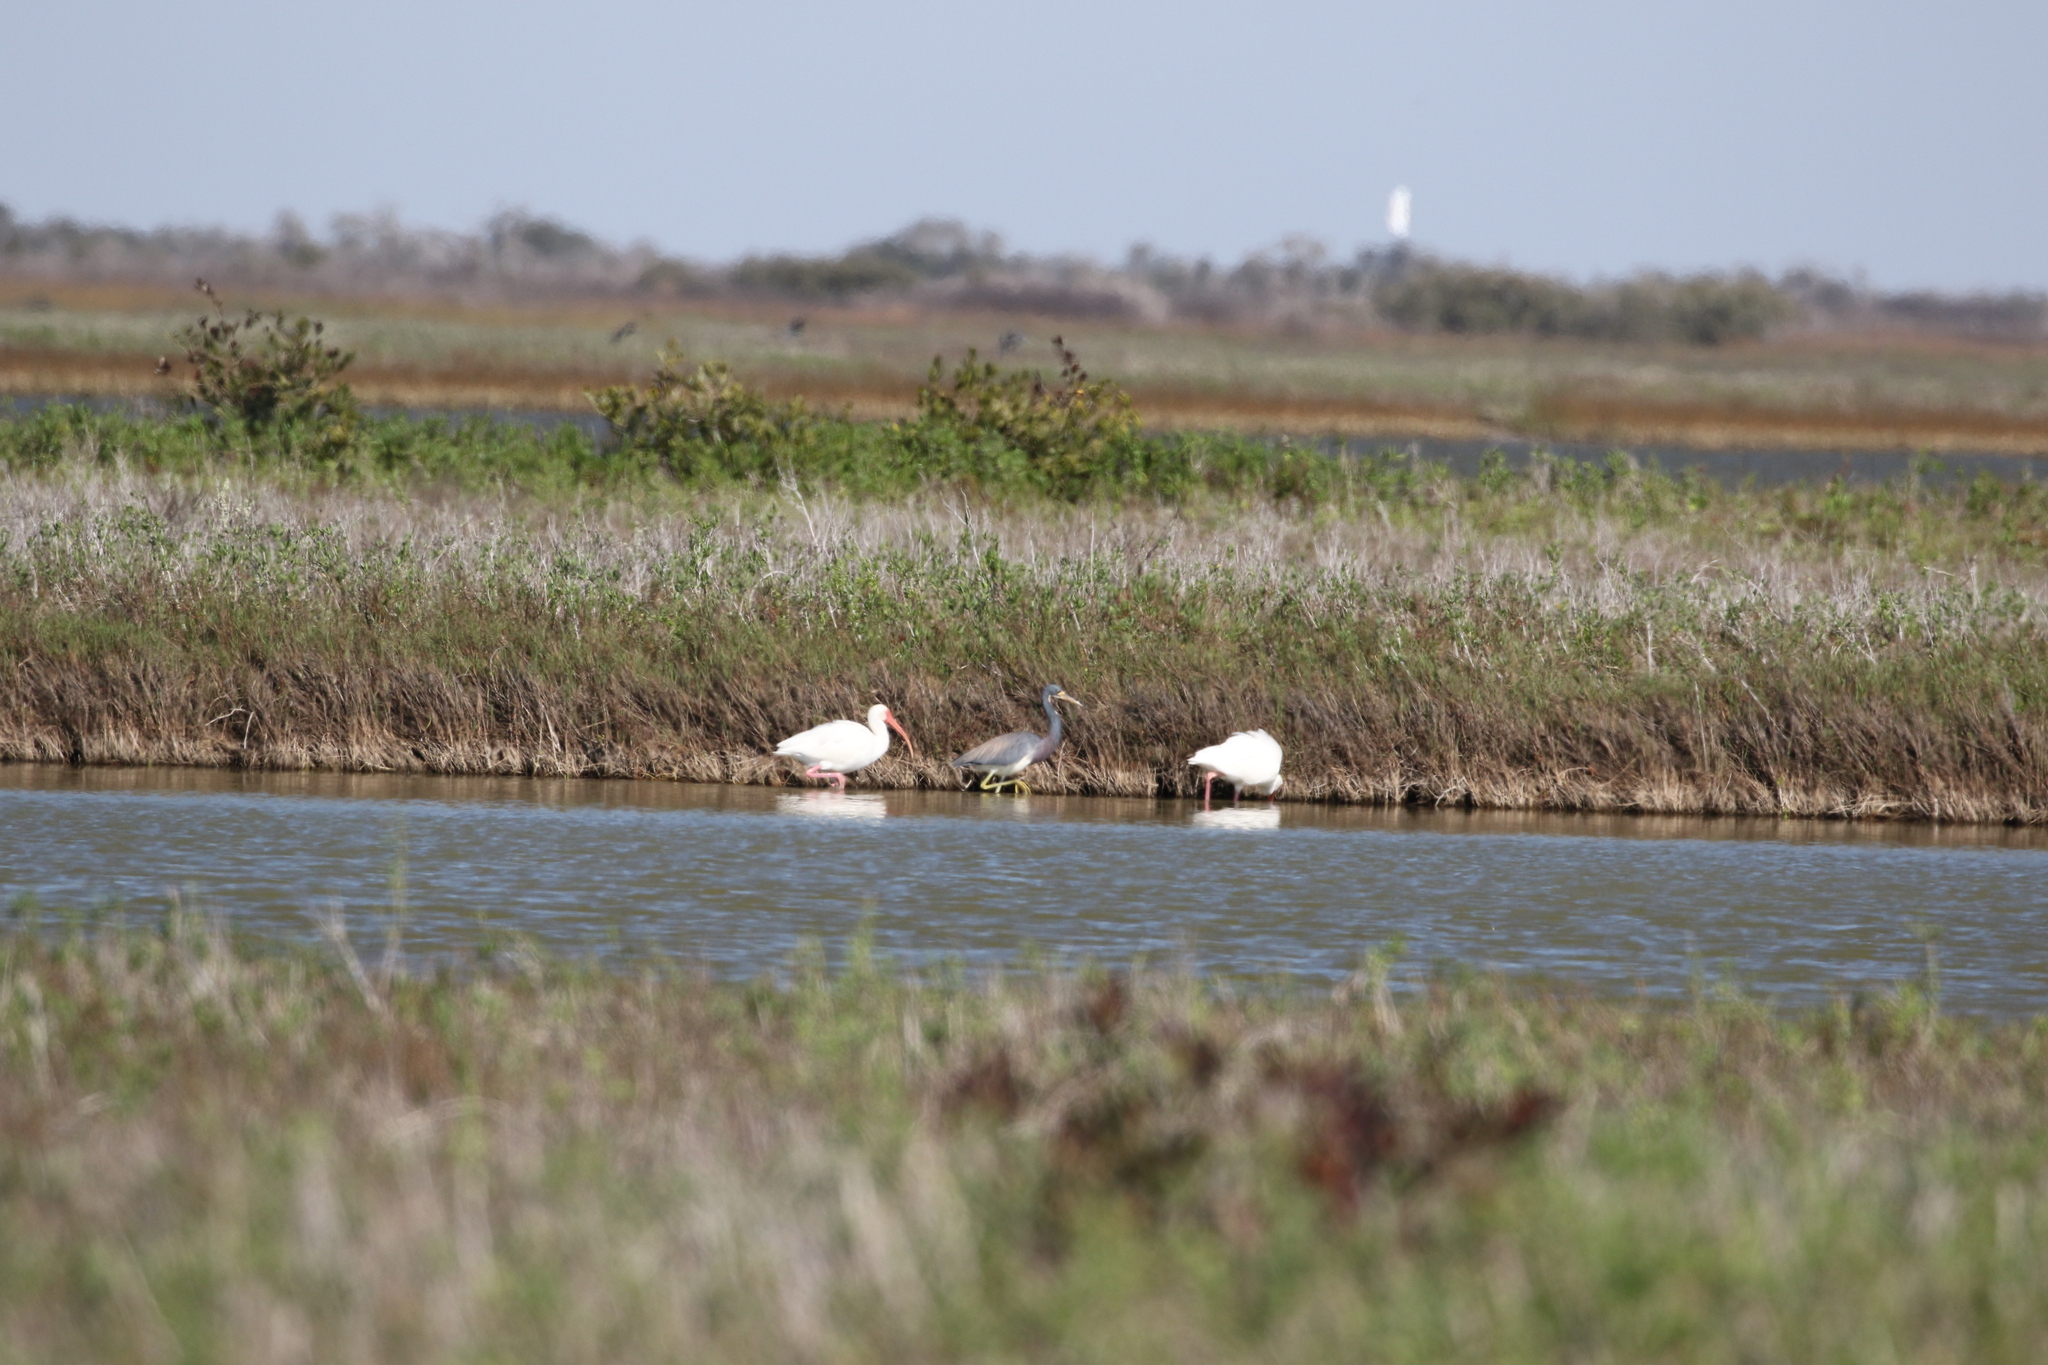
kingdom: Animalia
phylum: Chordata
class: Aves
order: Pelecaniformes
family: Threskiornithidae
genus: Eudocimus
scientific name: Eudocimus albus
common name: White ibis
